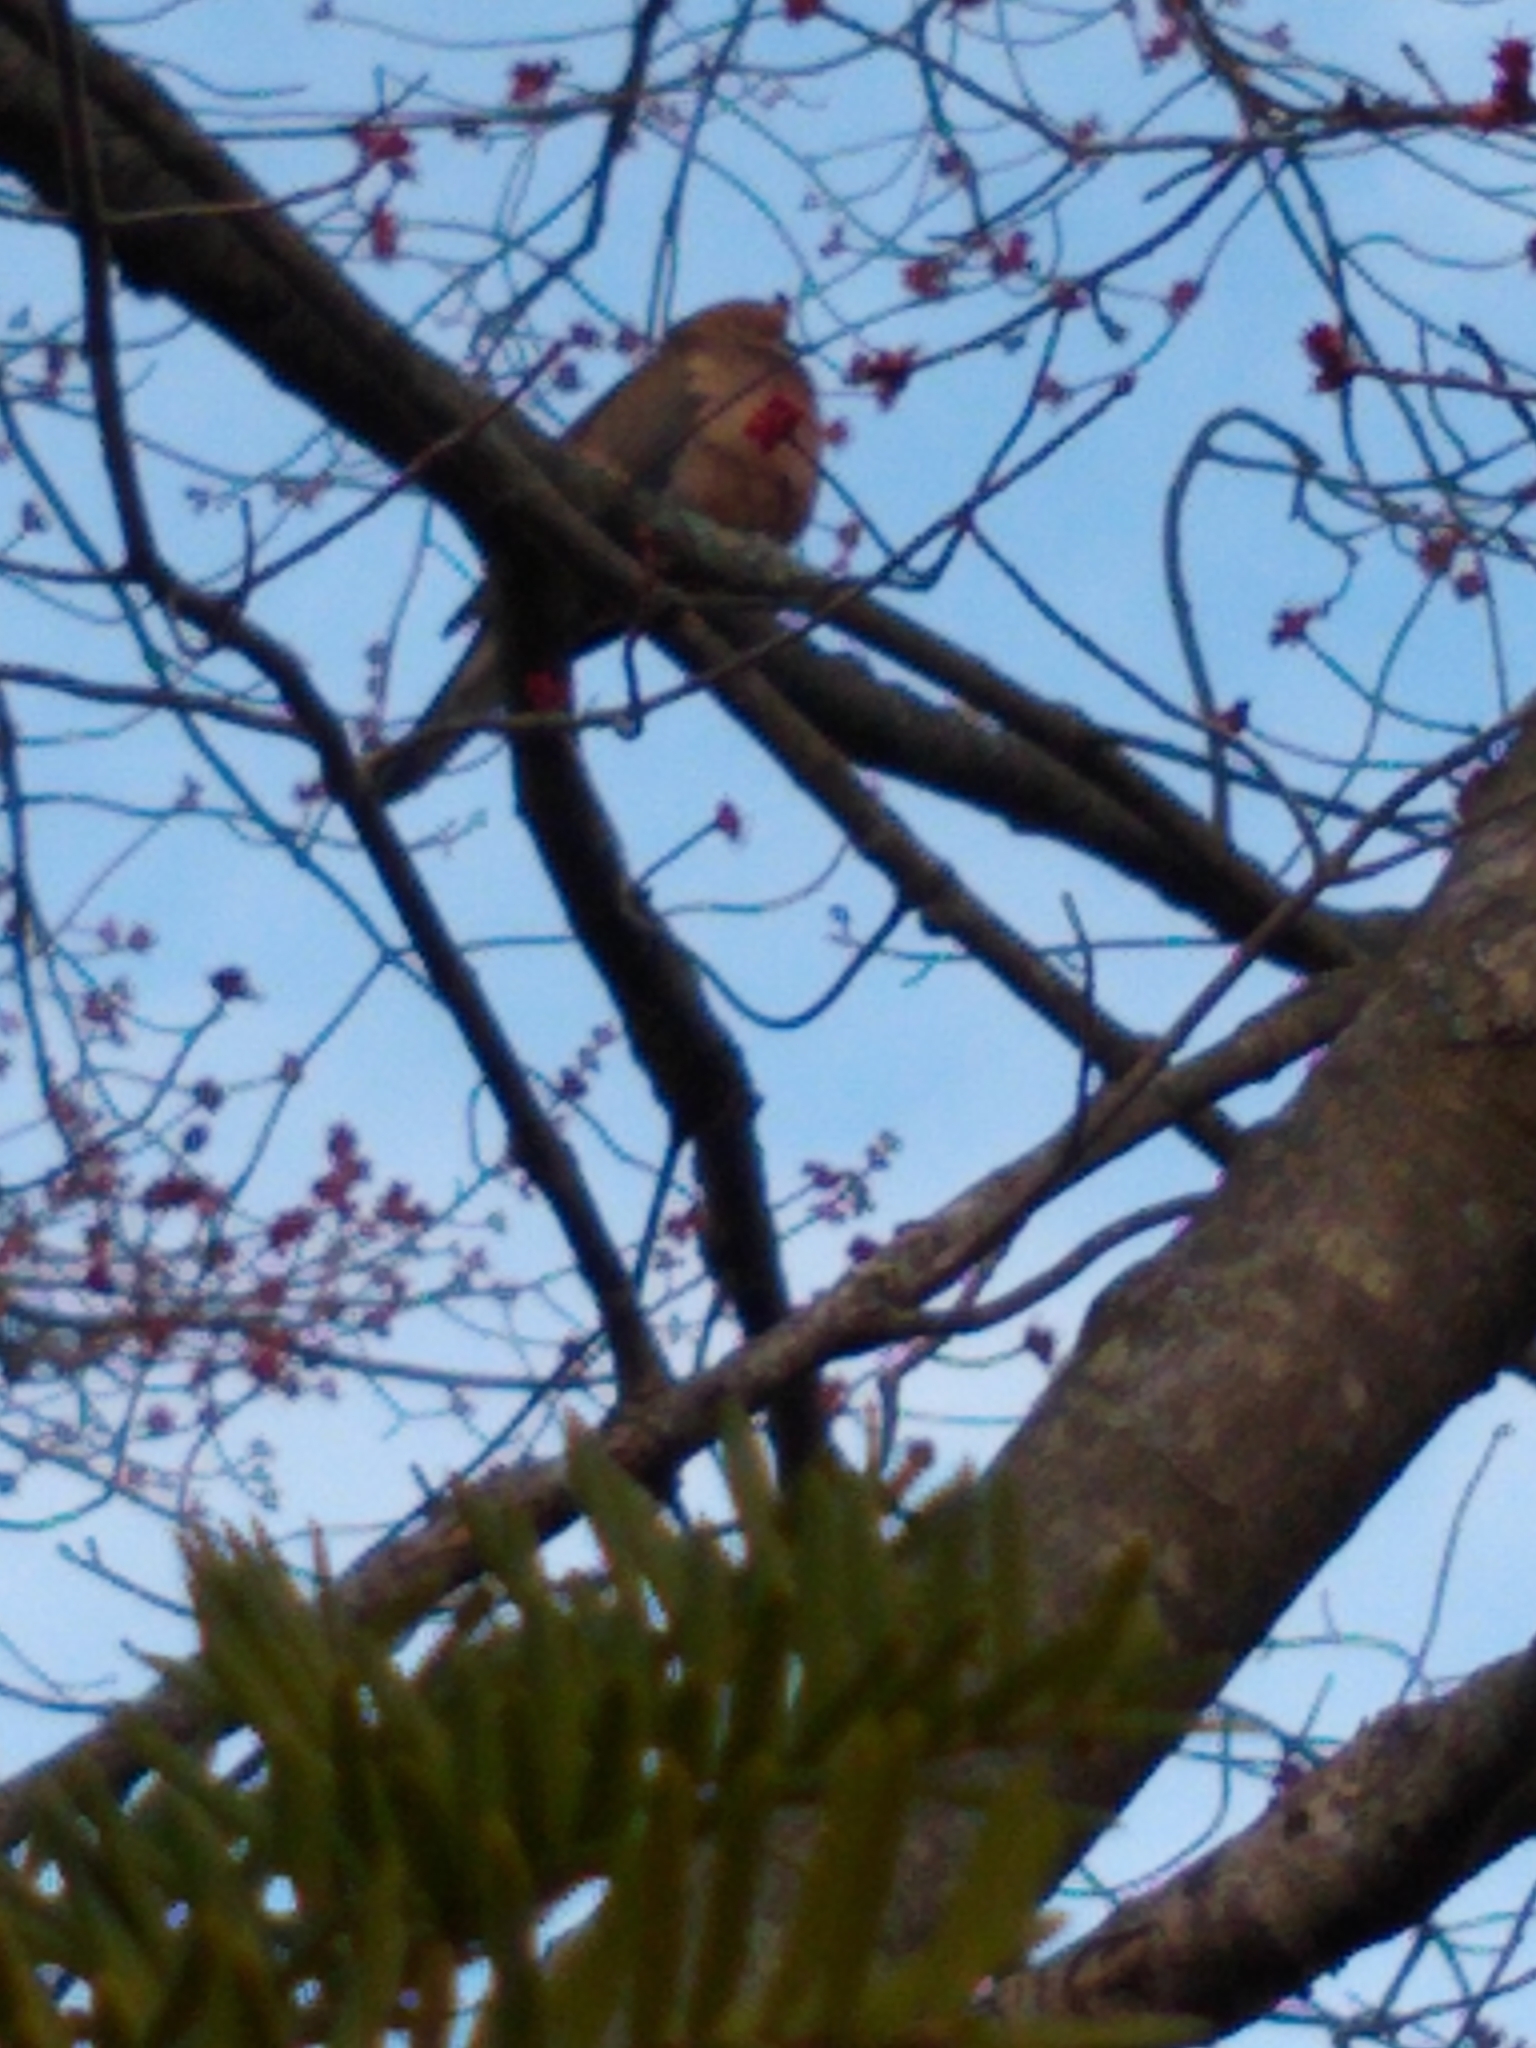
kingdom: Animalia
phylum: Chordata
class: Aves
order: Columbiformes
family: Columbidae
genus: Zenaida
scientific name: Zenaida macroura
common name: Mourning dove
